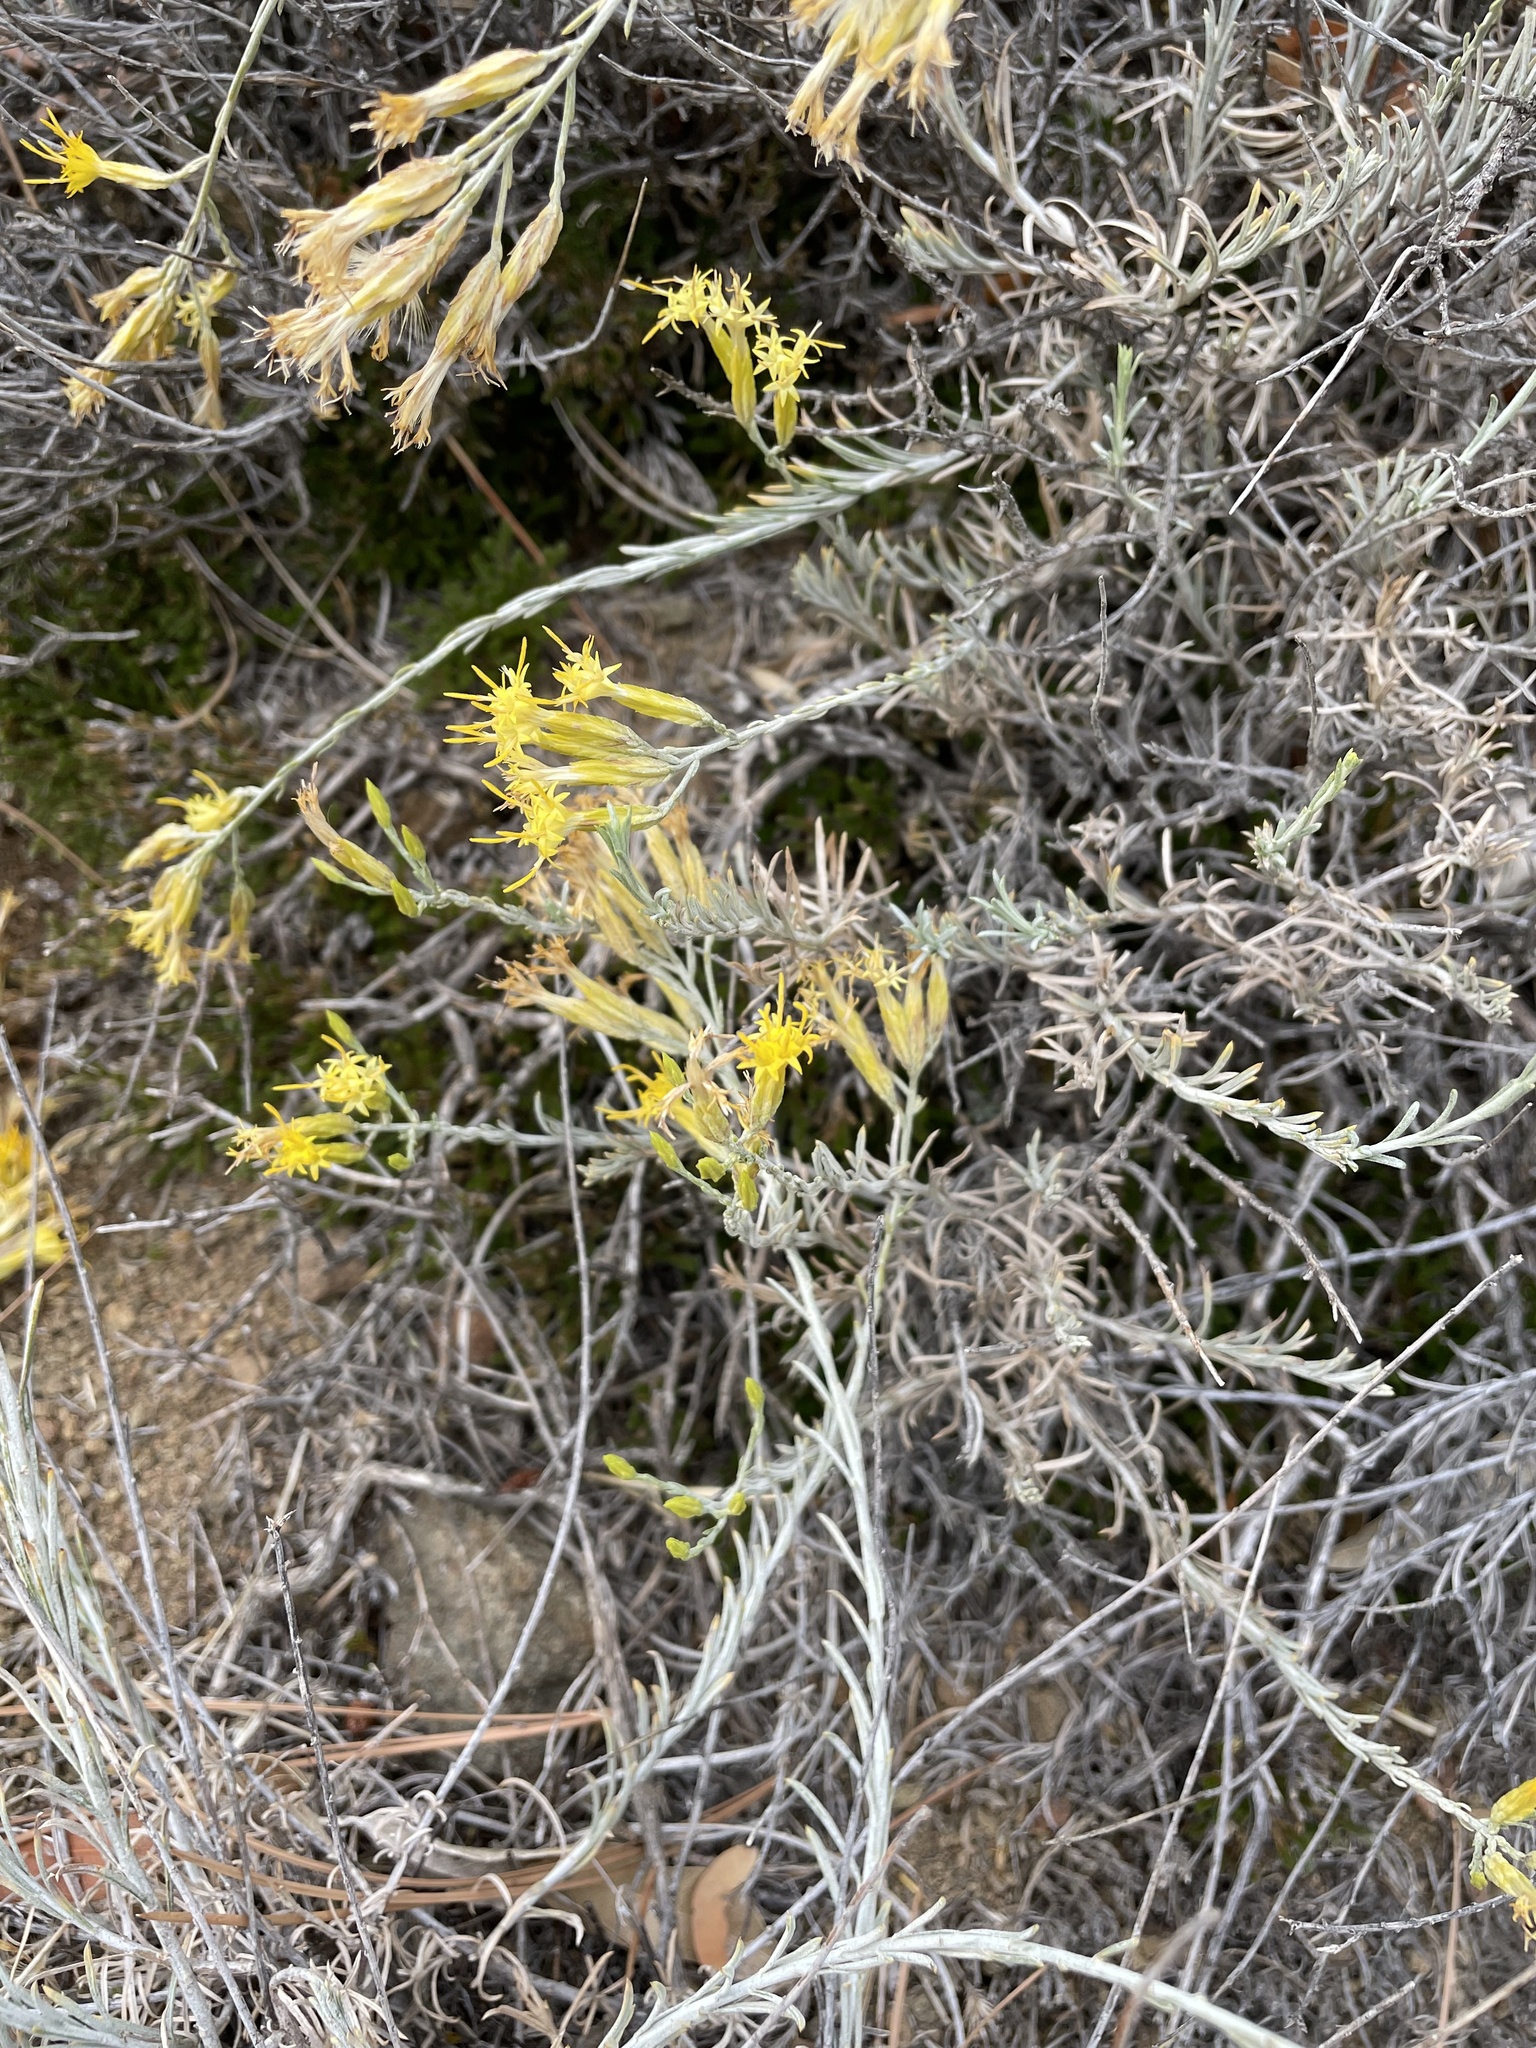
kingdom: Plantae
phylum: Tracheophyta
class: Magnoliopsida
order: Asterales
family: Asteraceae
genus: Ericameria
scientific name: Ericameria nauseosa
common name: Rubber rabbitbrush
